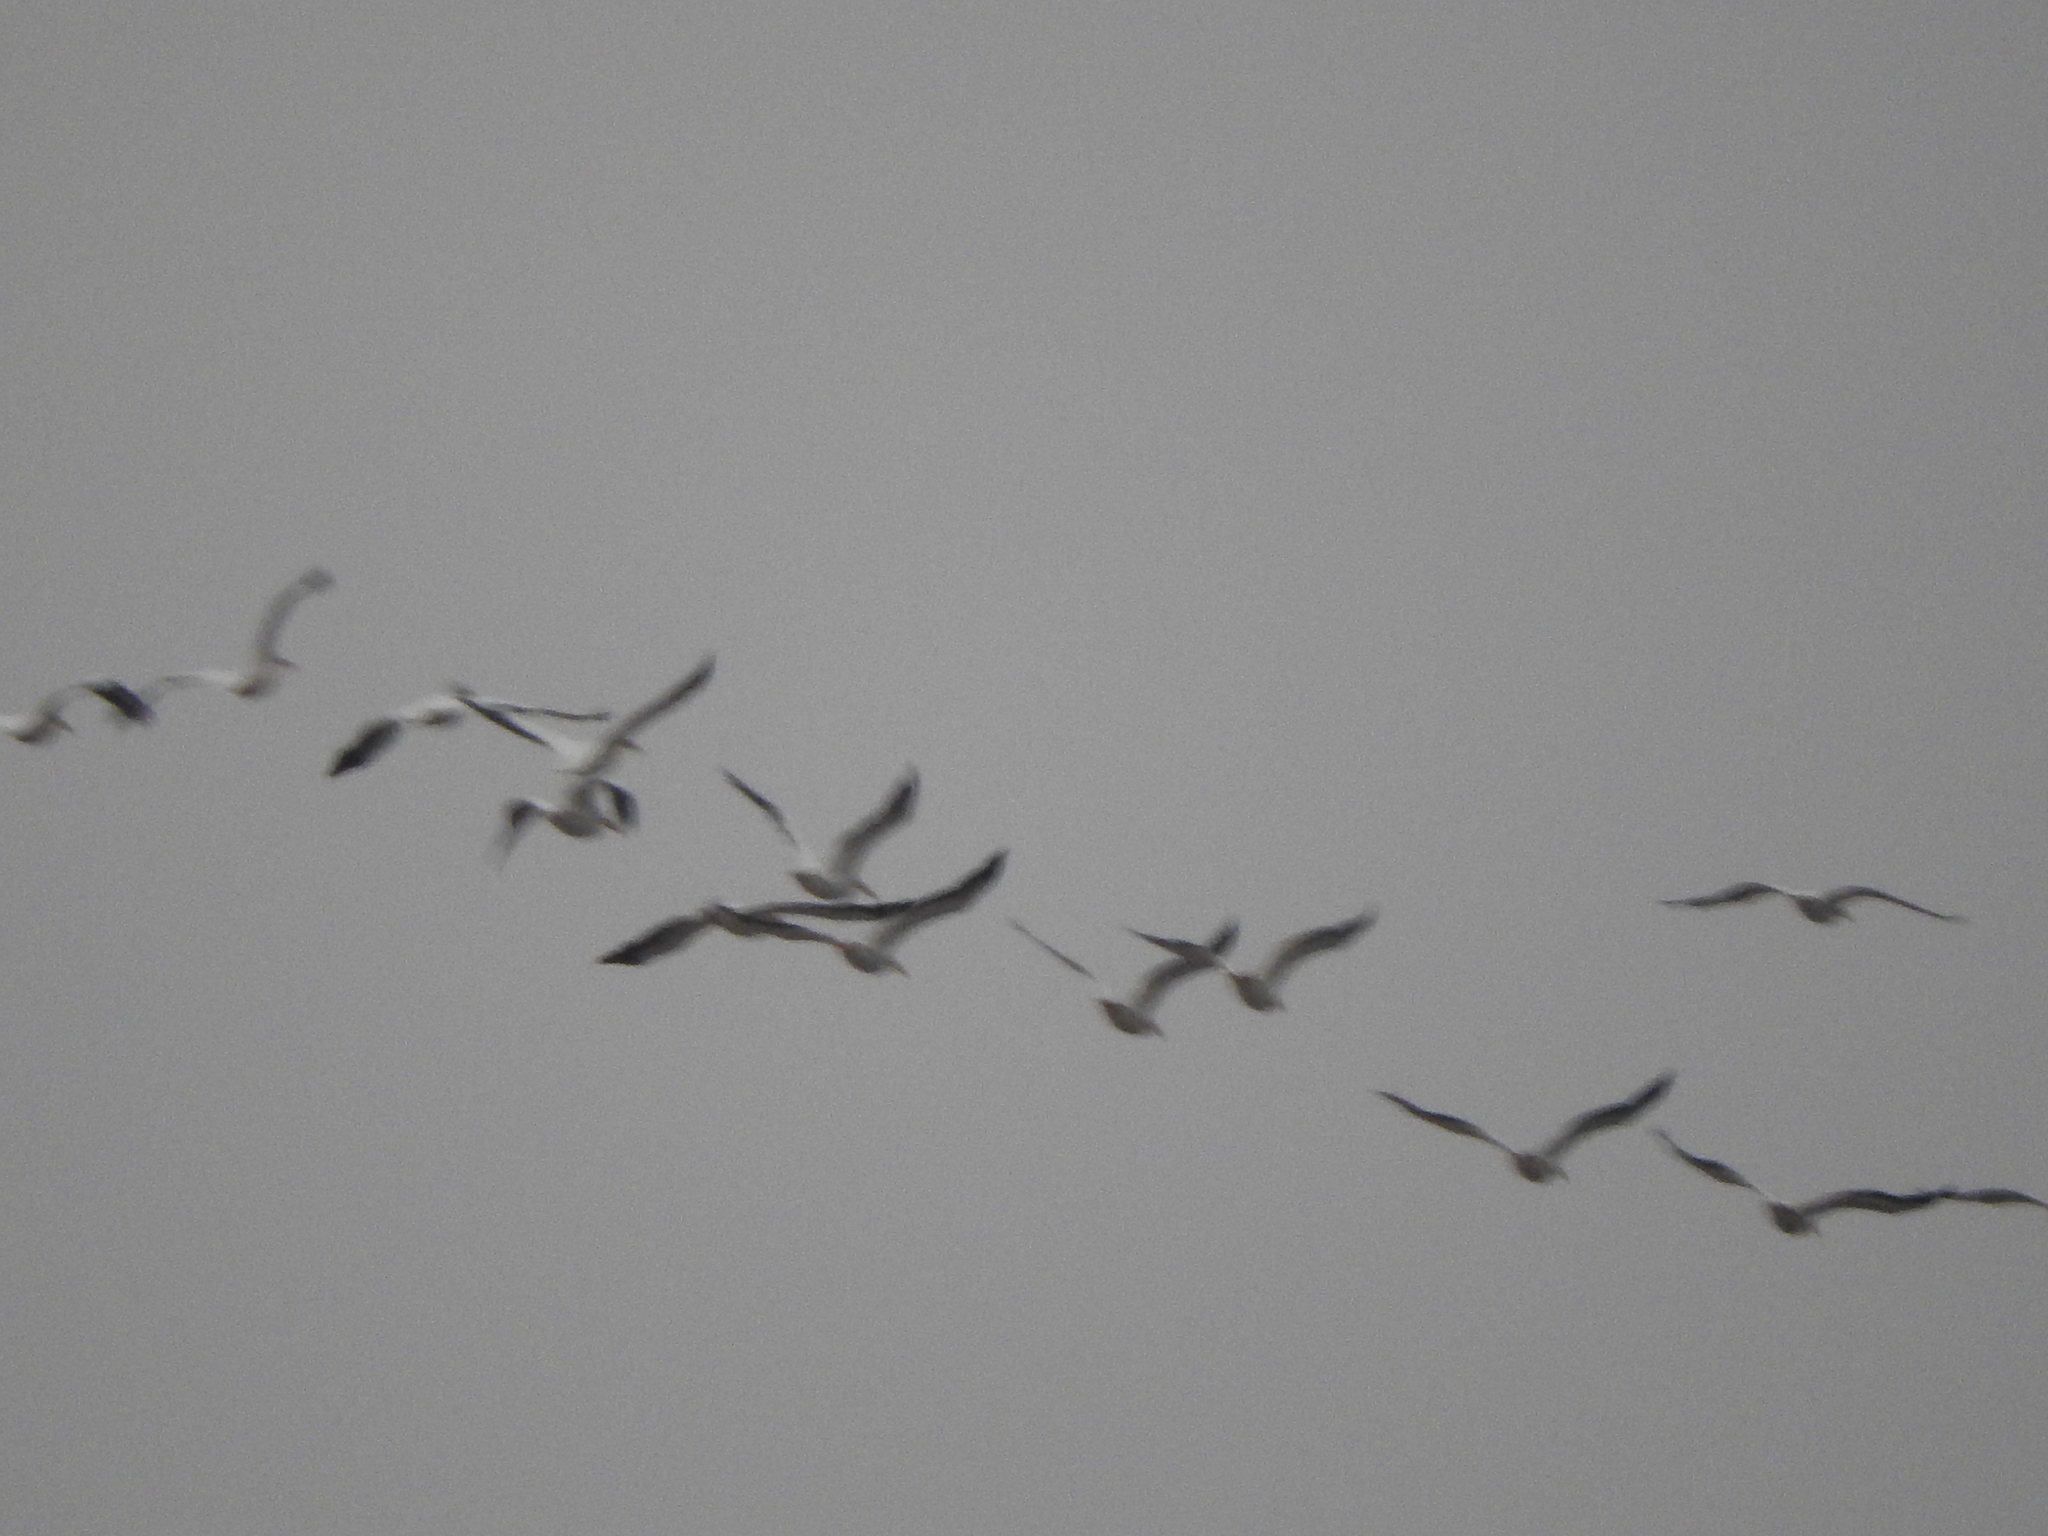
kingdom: Animalia
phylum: Chordata
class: Aves
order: Pelecaniformes
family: Pelecanidae
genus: Pelecanus
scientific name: Pelecanus erythrorhynchos
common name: American white pelican
